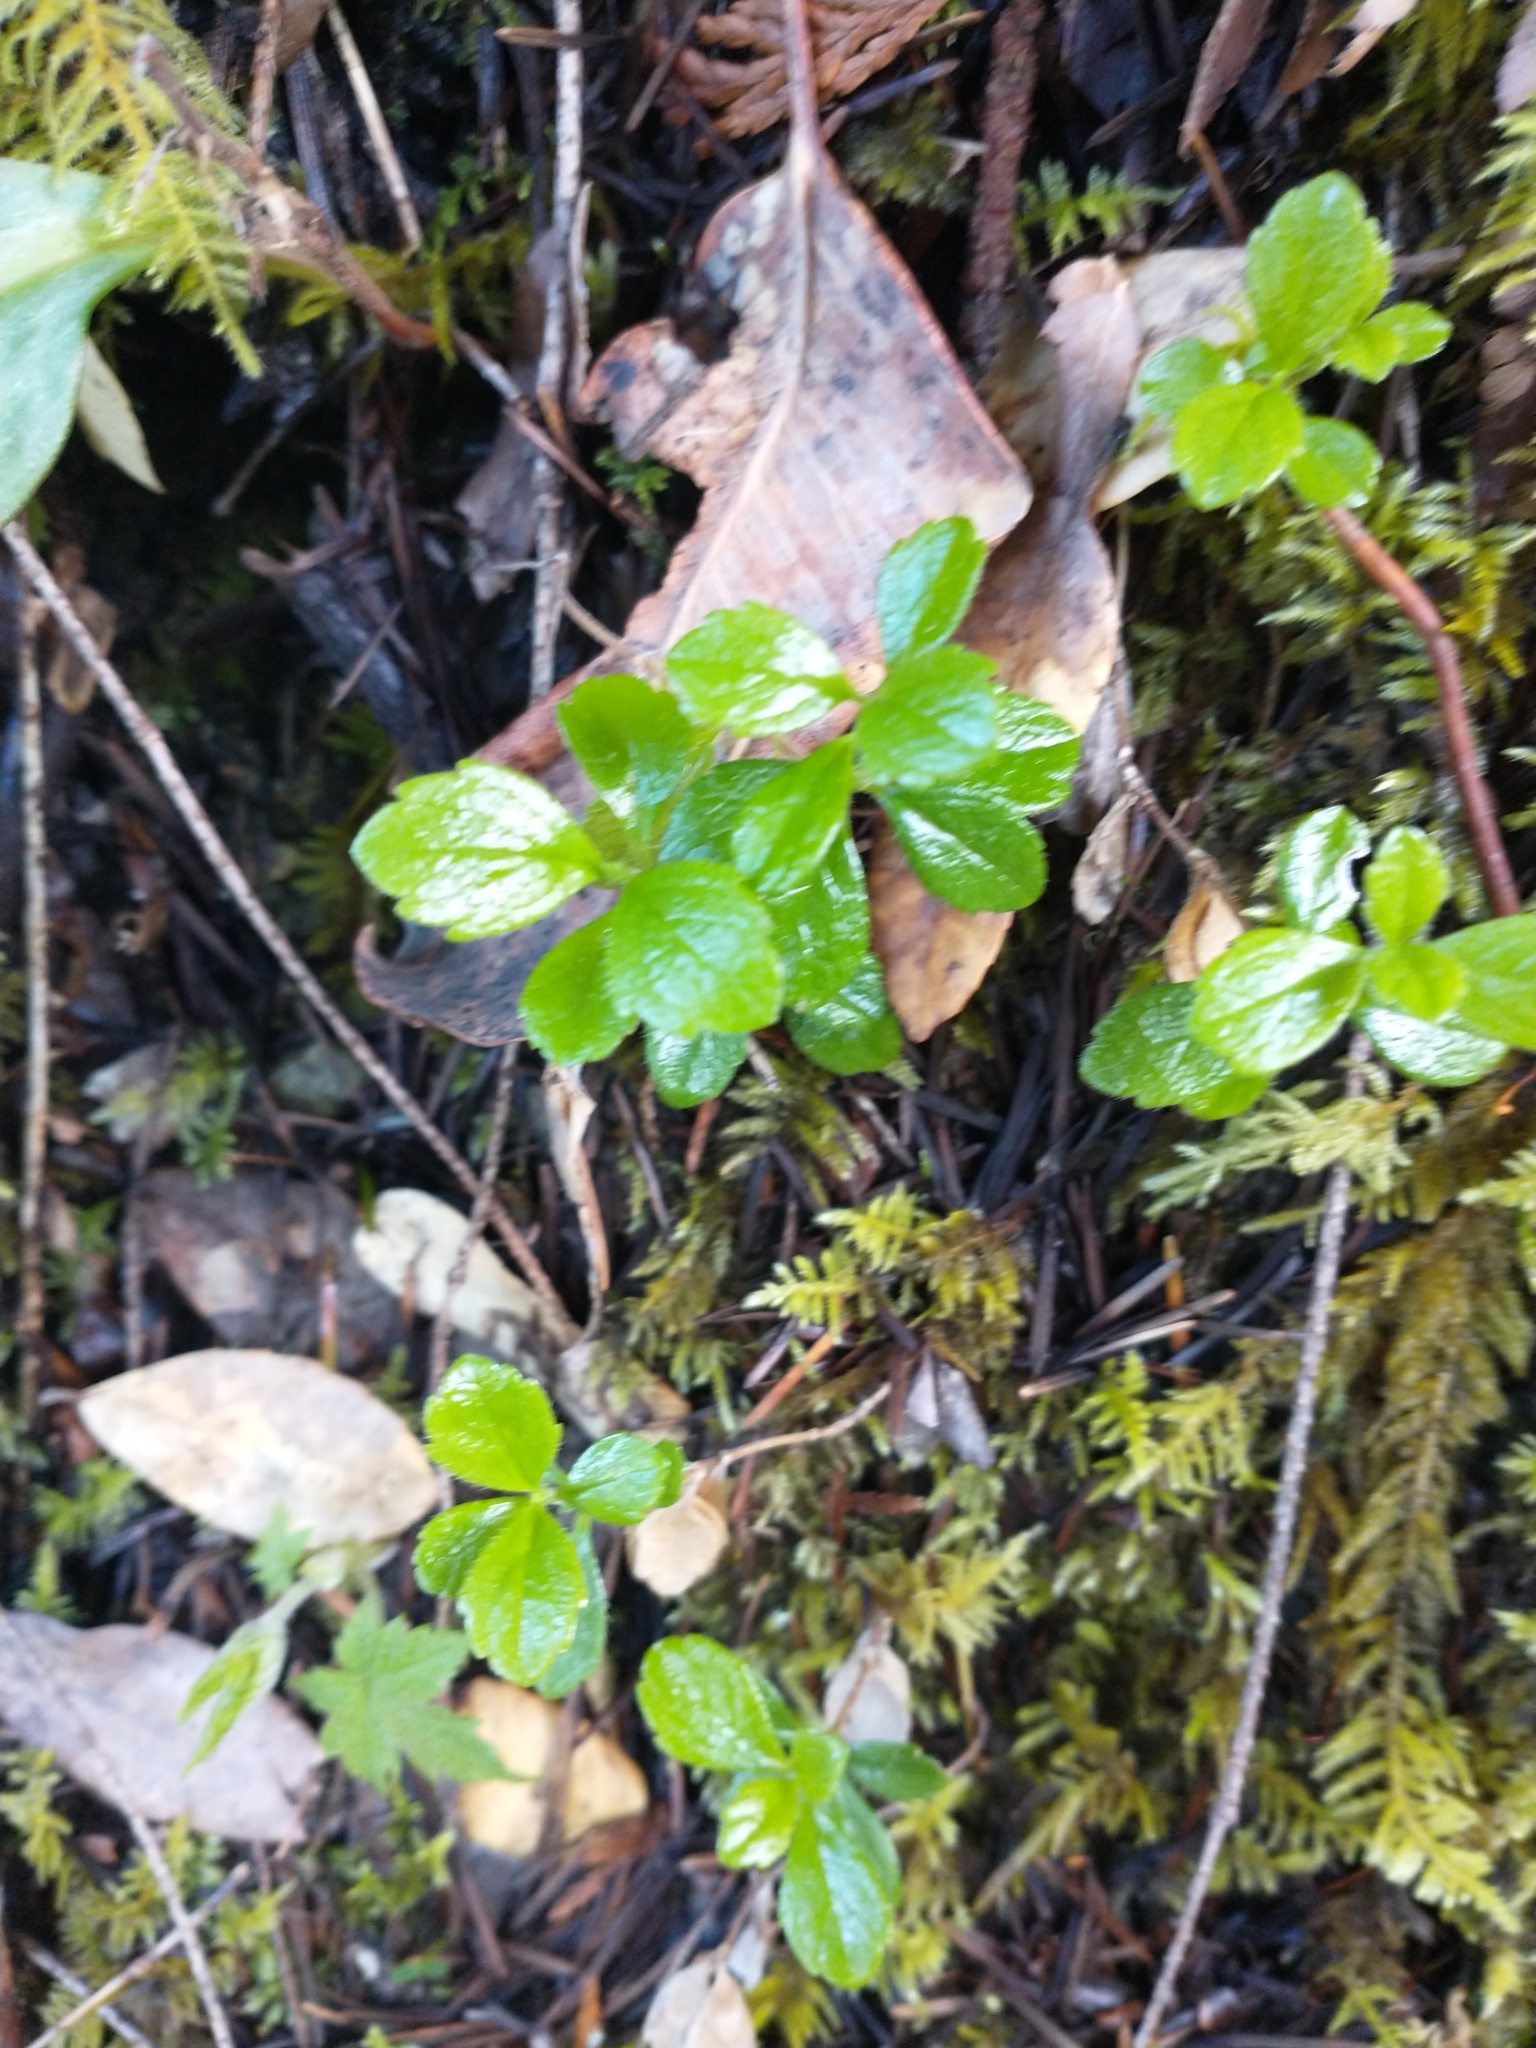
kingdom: Plantae
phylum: Tracheophyta
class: Magnoliopsida
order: Dipsacales
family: Caprifoliaceae
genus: Linnaea
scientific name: Linnaea borealis
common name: Twinflower
